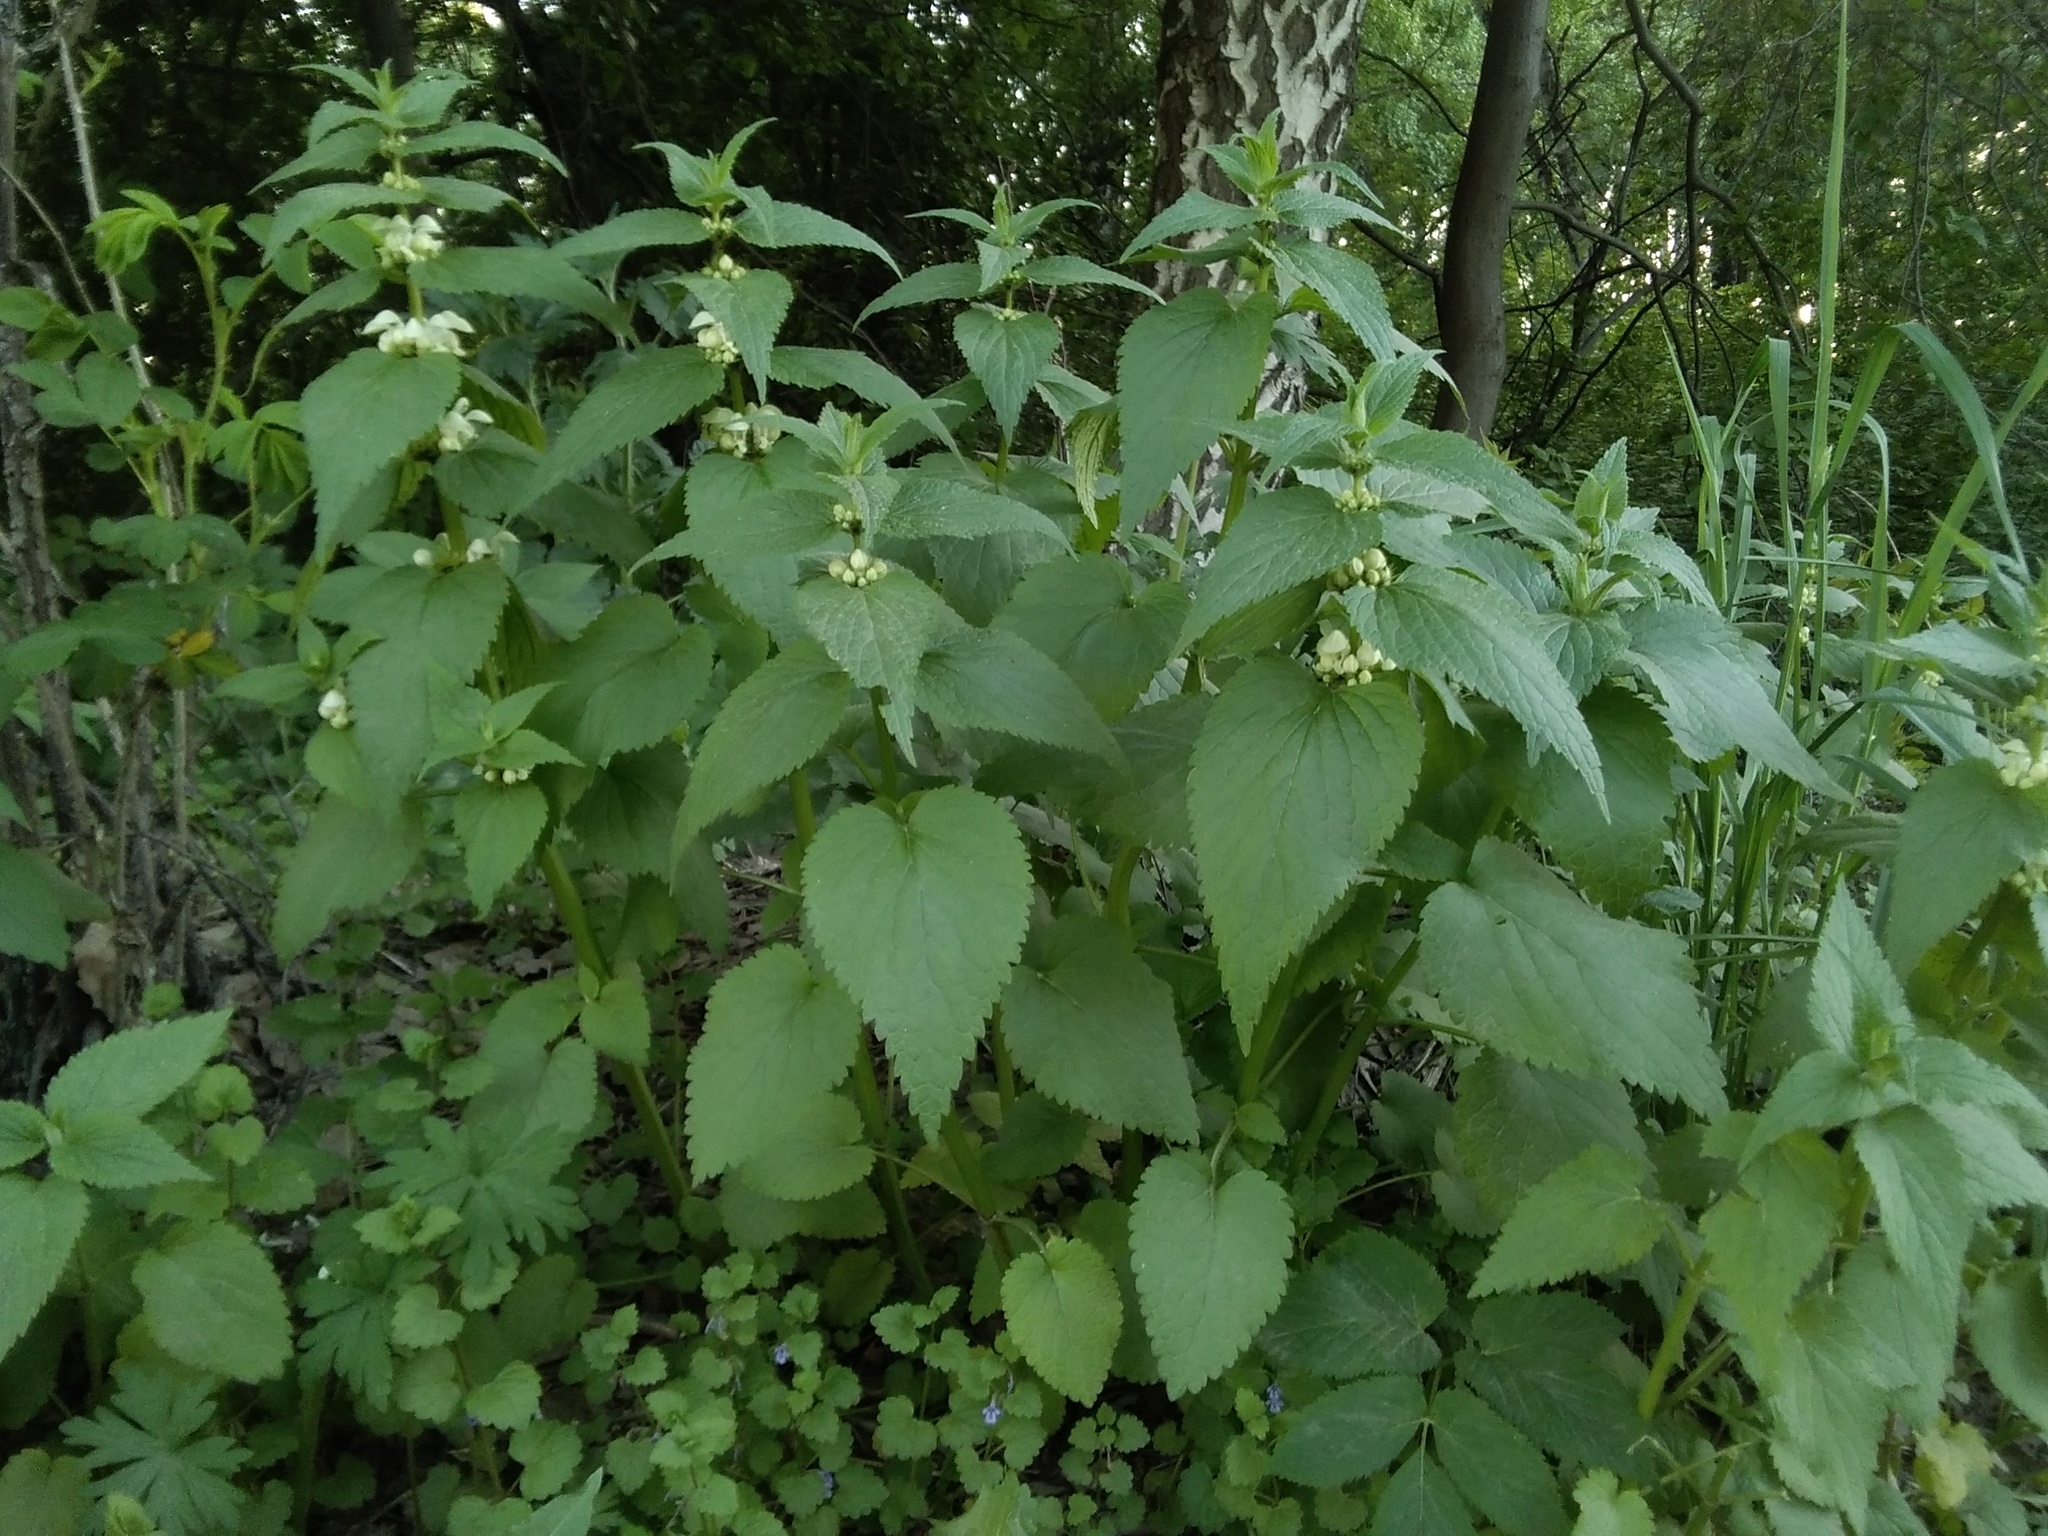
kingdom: Plantae
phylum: Tracheophyta
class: Magnoliopsida
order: Lamiales
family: Lamiaceae
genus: Lamium
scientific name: Lamium album
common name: White dead-nettle
